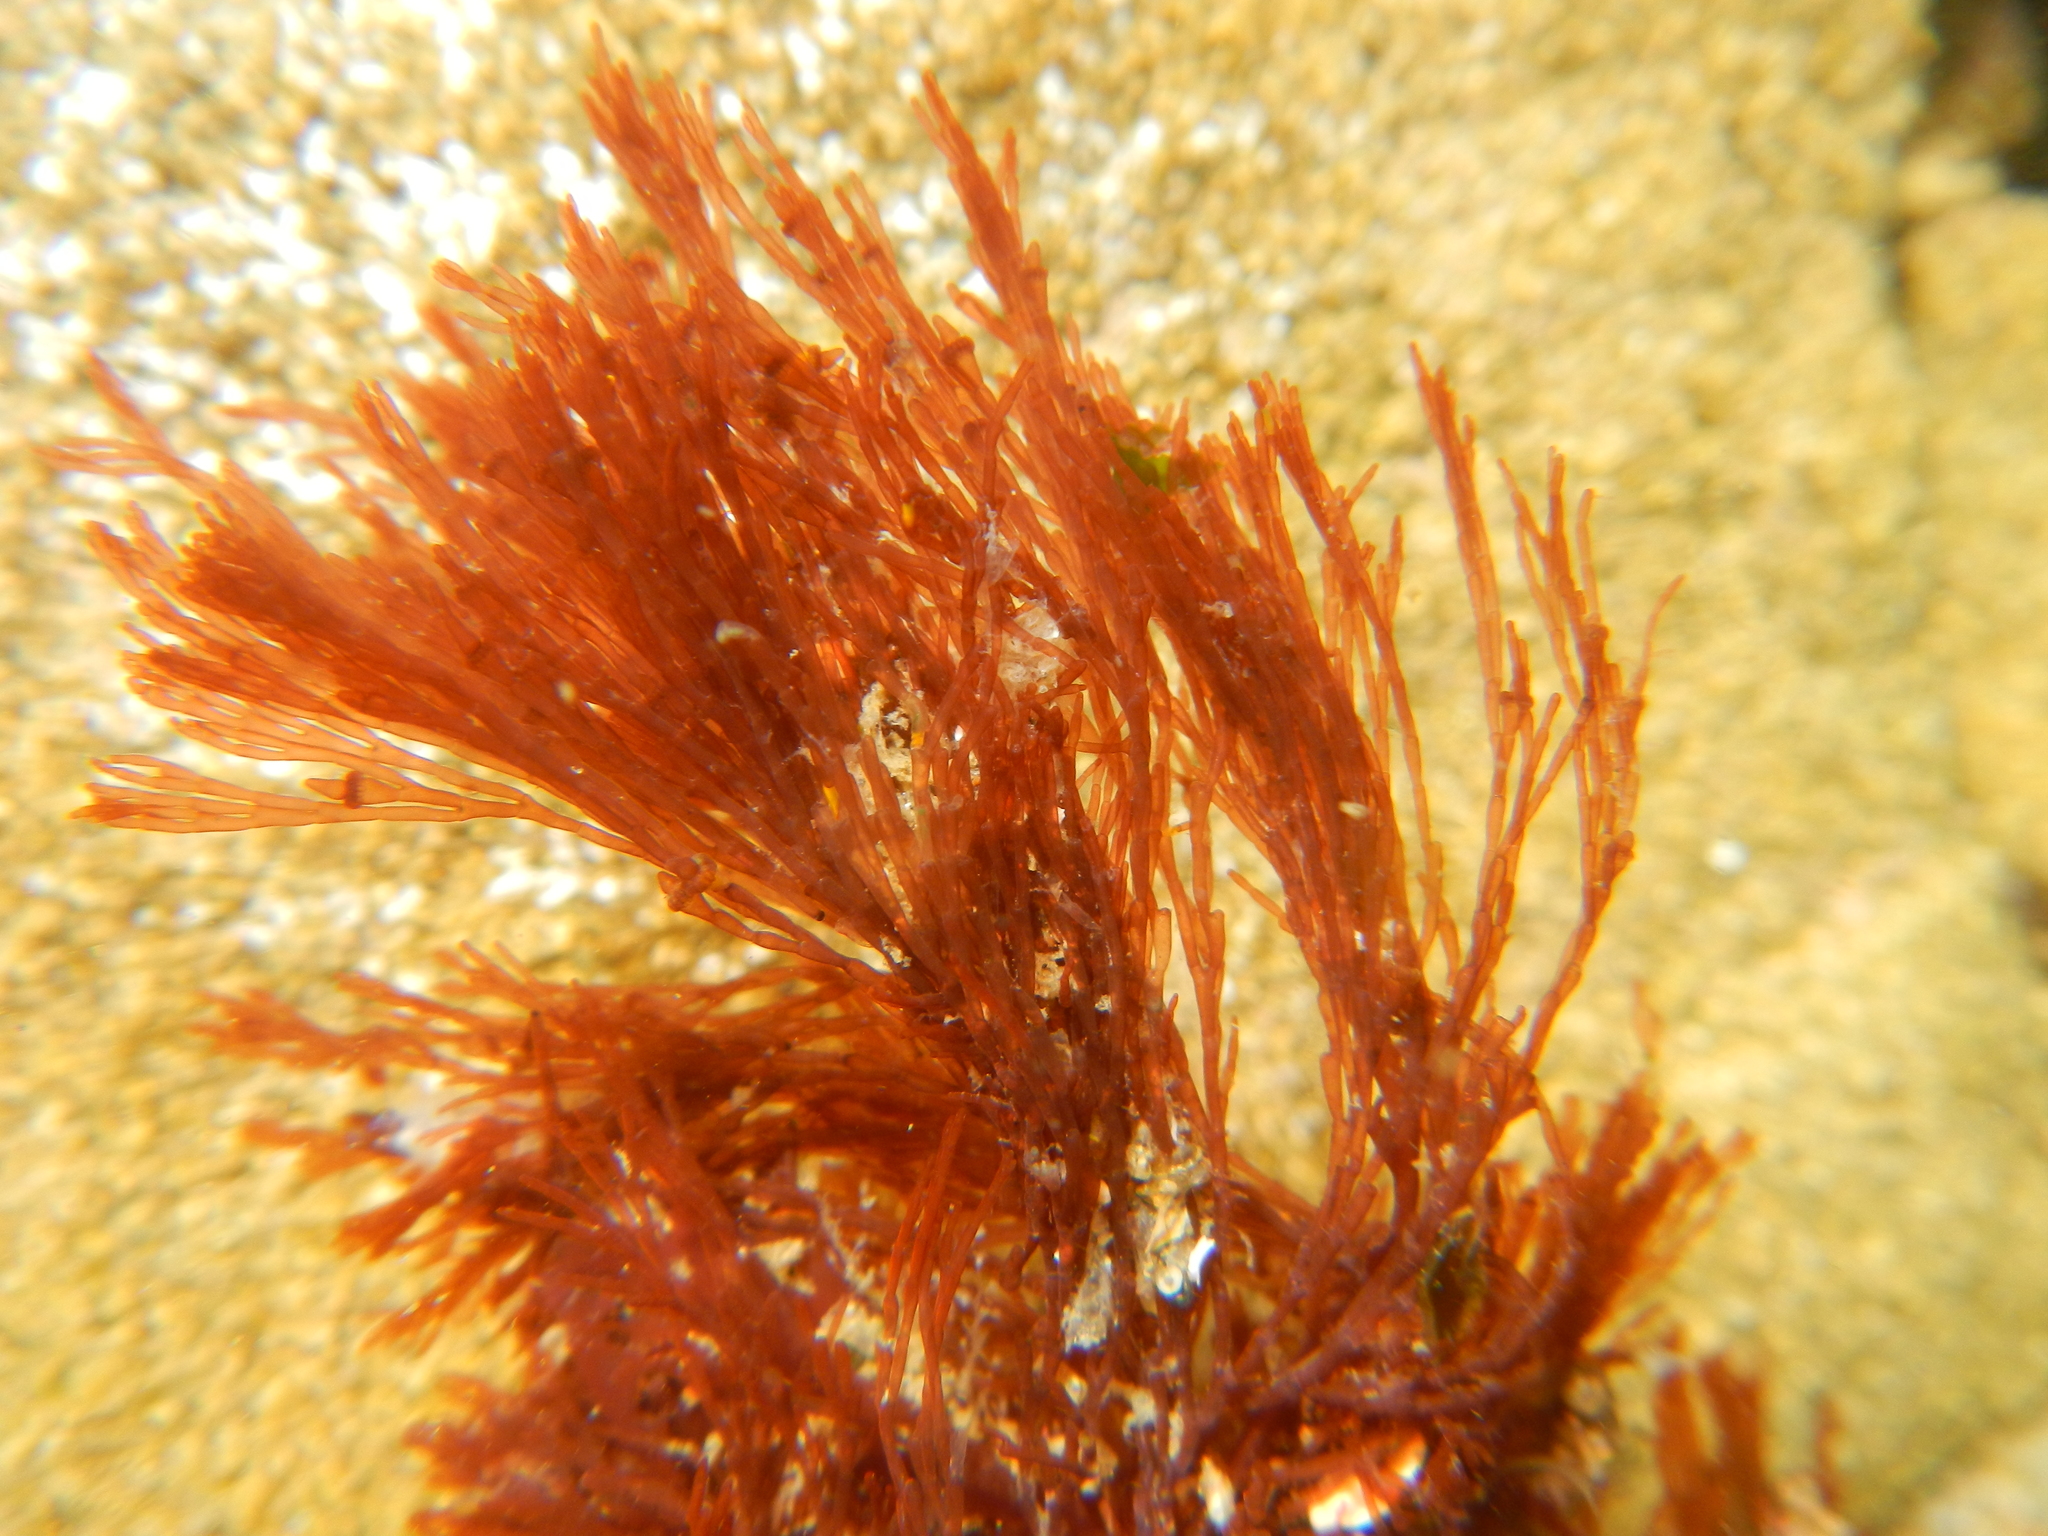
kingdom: Plantae
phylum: Rhodophyta
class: Florideophyceae
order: Ceramiales
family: Wrangeliaceae
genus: Griffithsia
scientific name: Griffithsia
